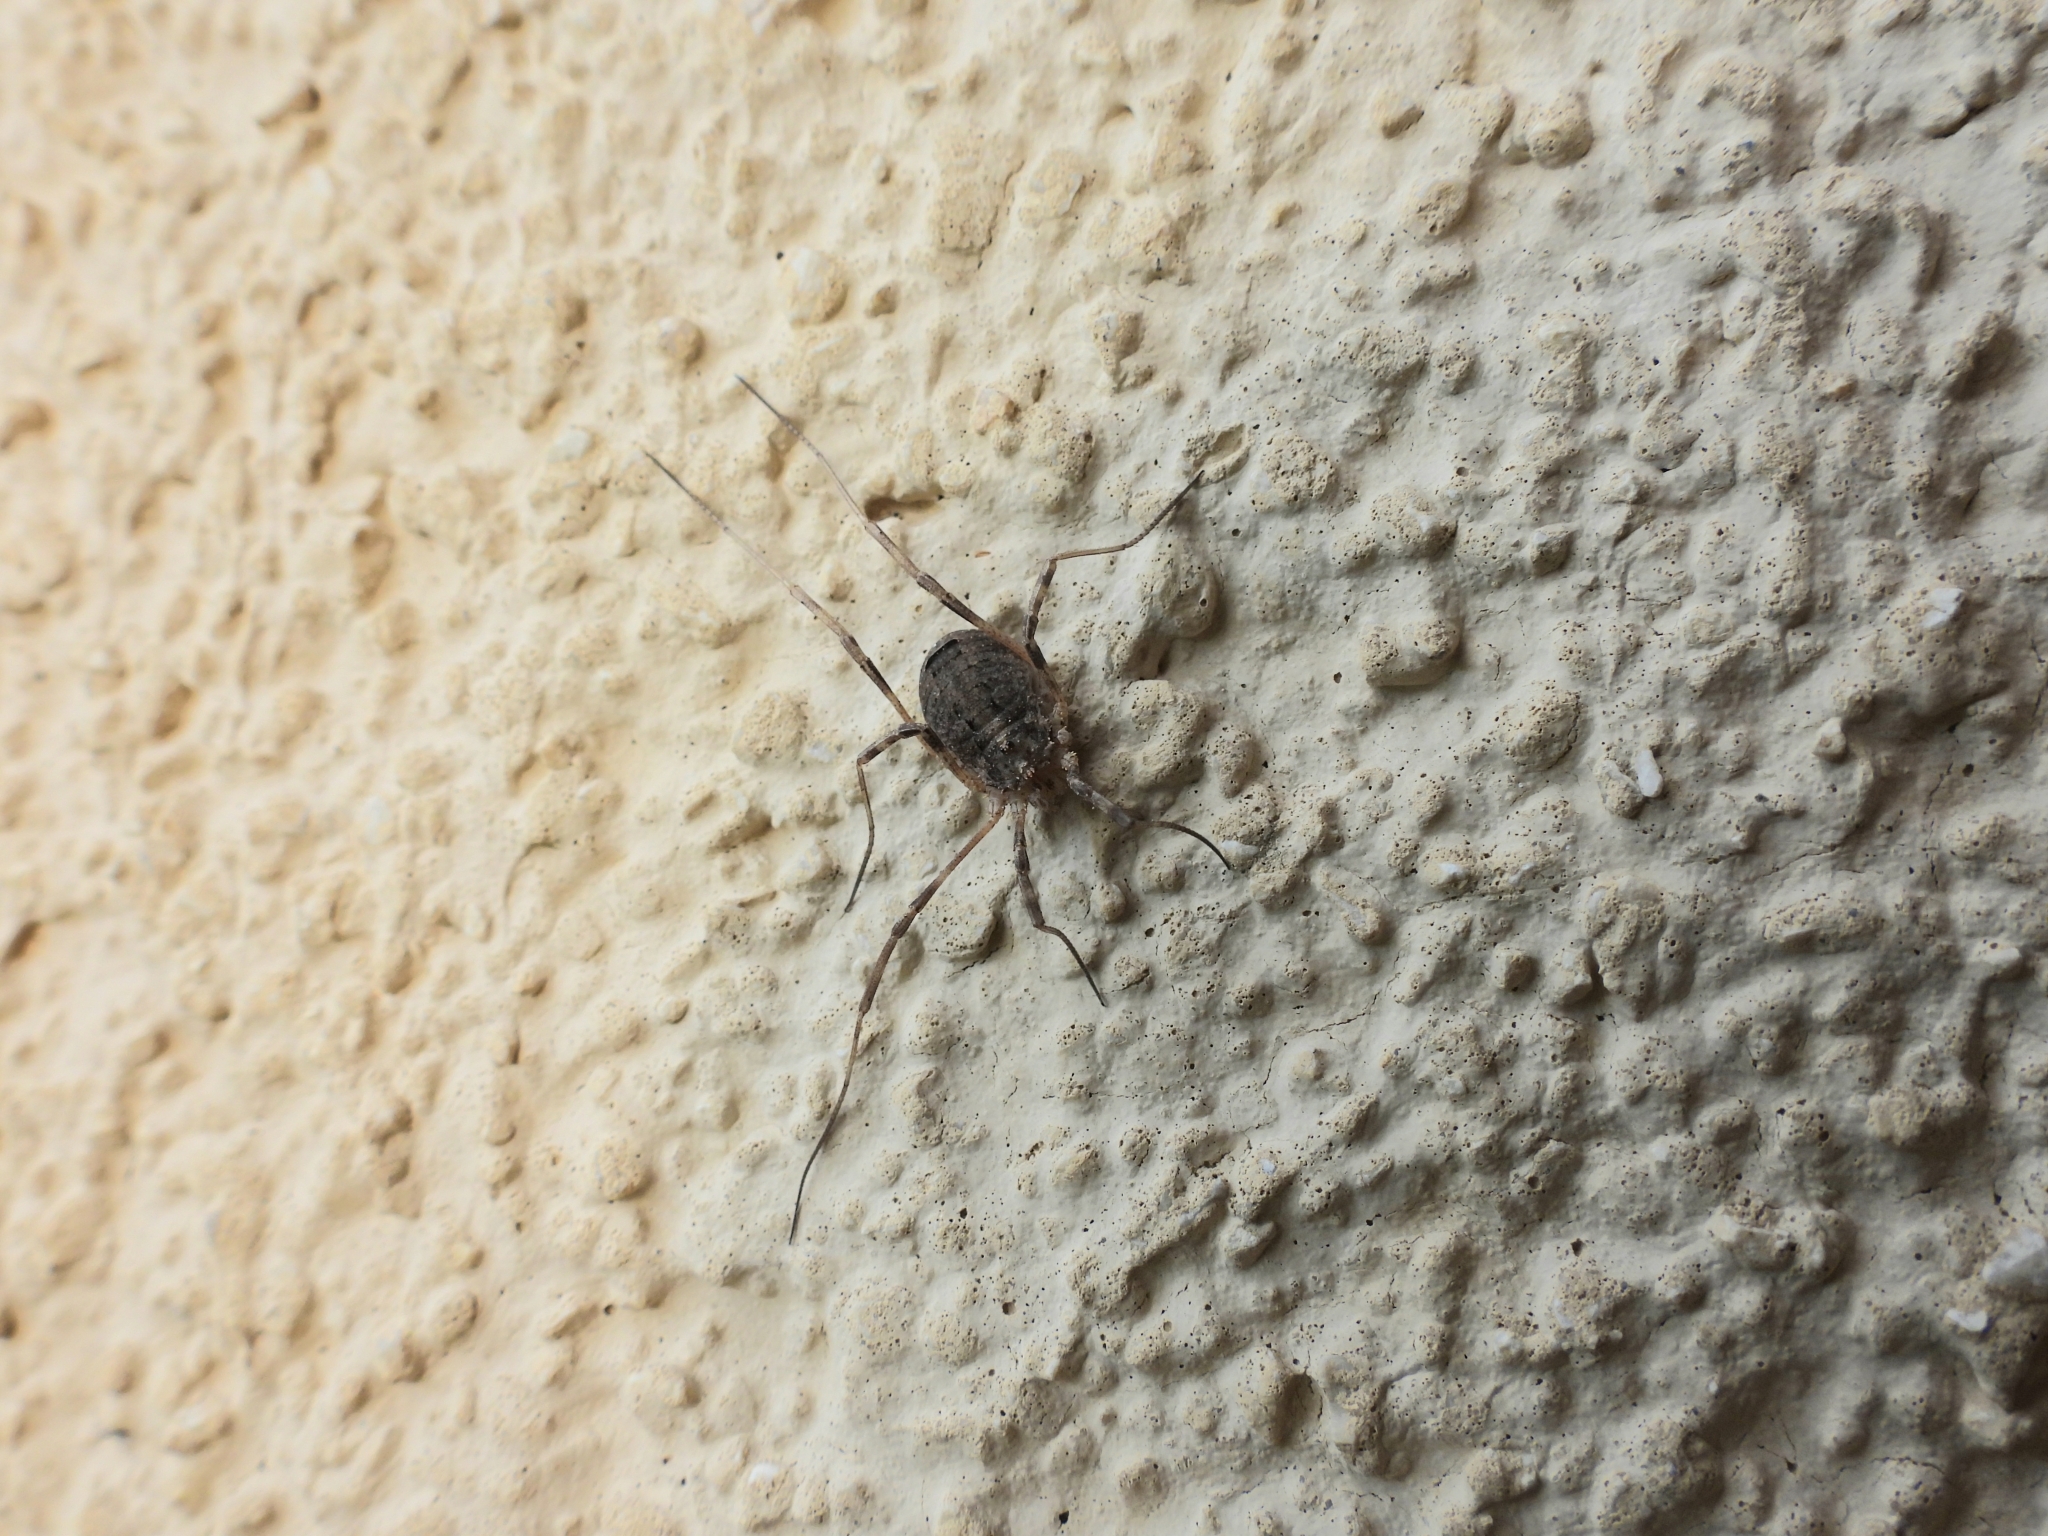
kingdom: Animalia
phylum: Arthropoda
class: Arachnida
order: Opiliones
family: Phalangiidae
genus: Odiellus
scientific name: Odiellus spinosus
